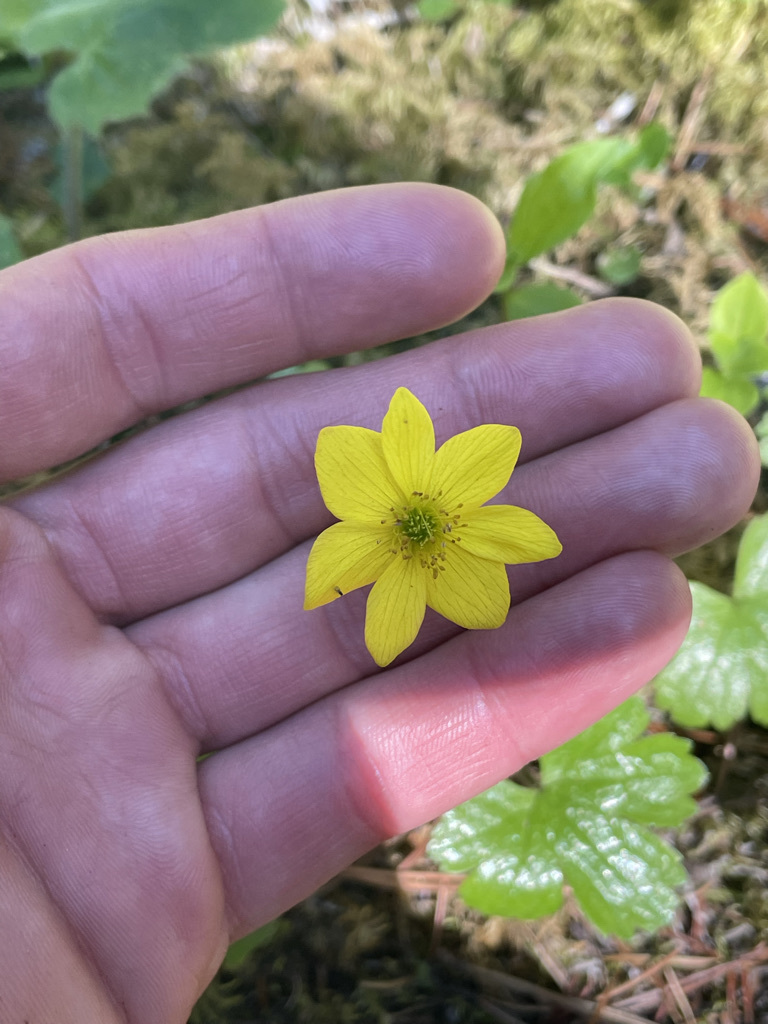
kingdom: Plantae
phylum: Tracheophyta
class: Magnoliopsida
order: Ranunculales
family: Ranunculaceae
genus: Anemonastrum
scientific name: Anemonastrum richardsonii
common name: Richardson's anemone
